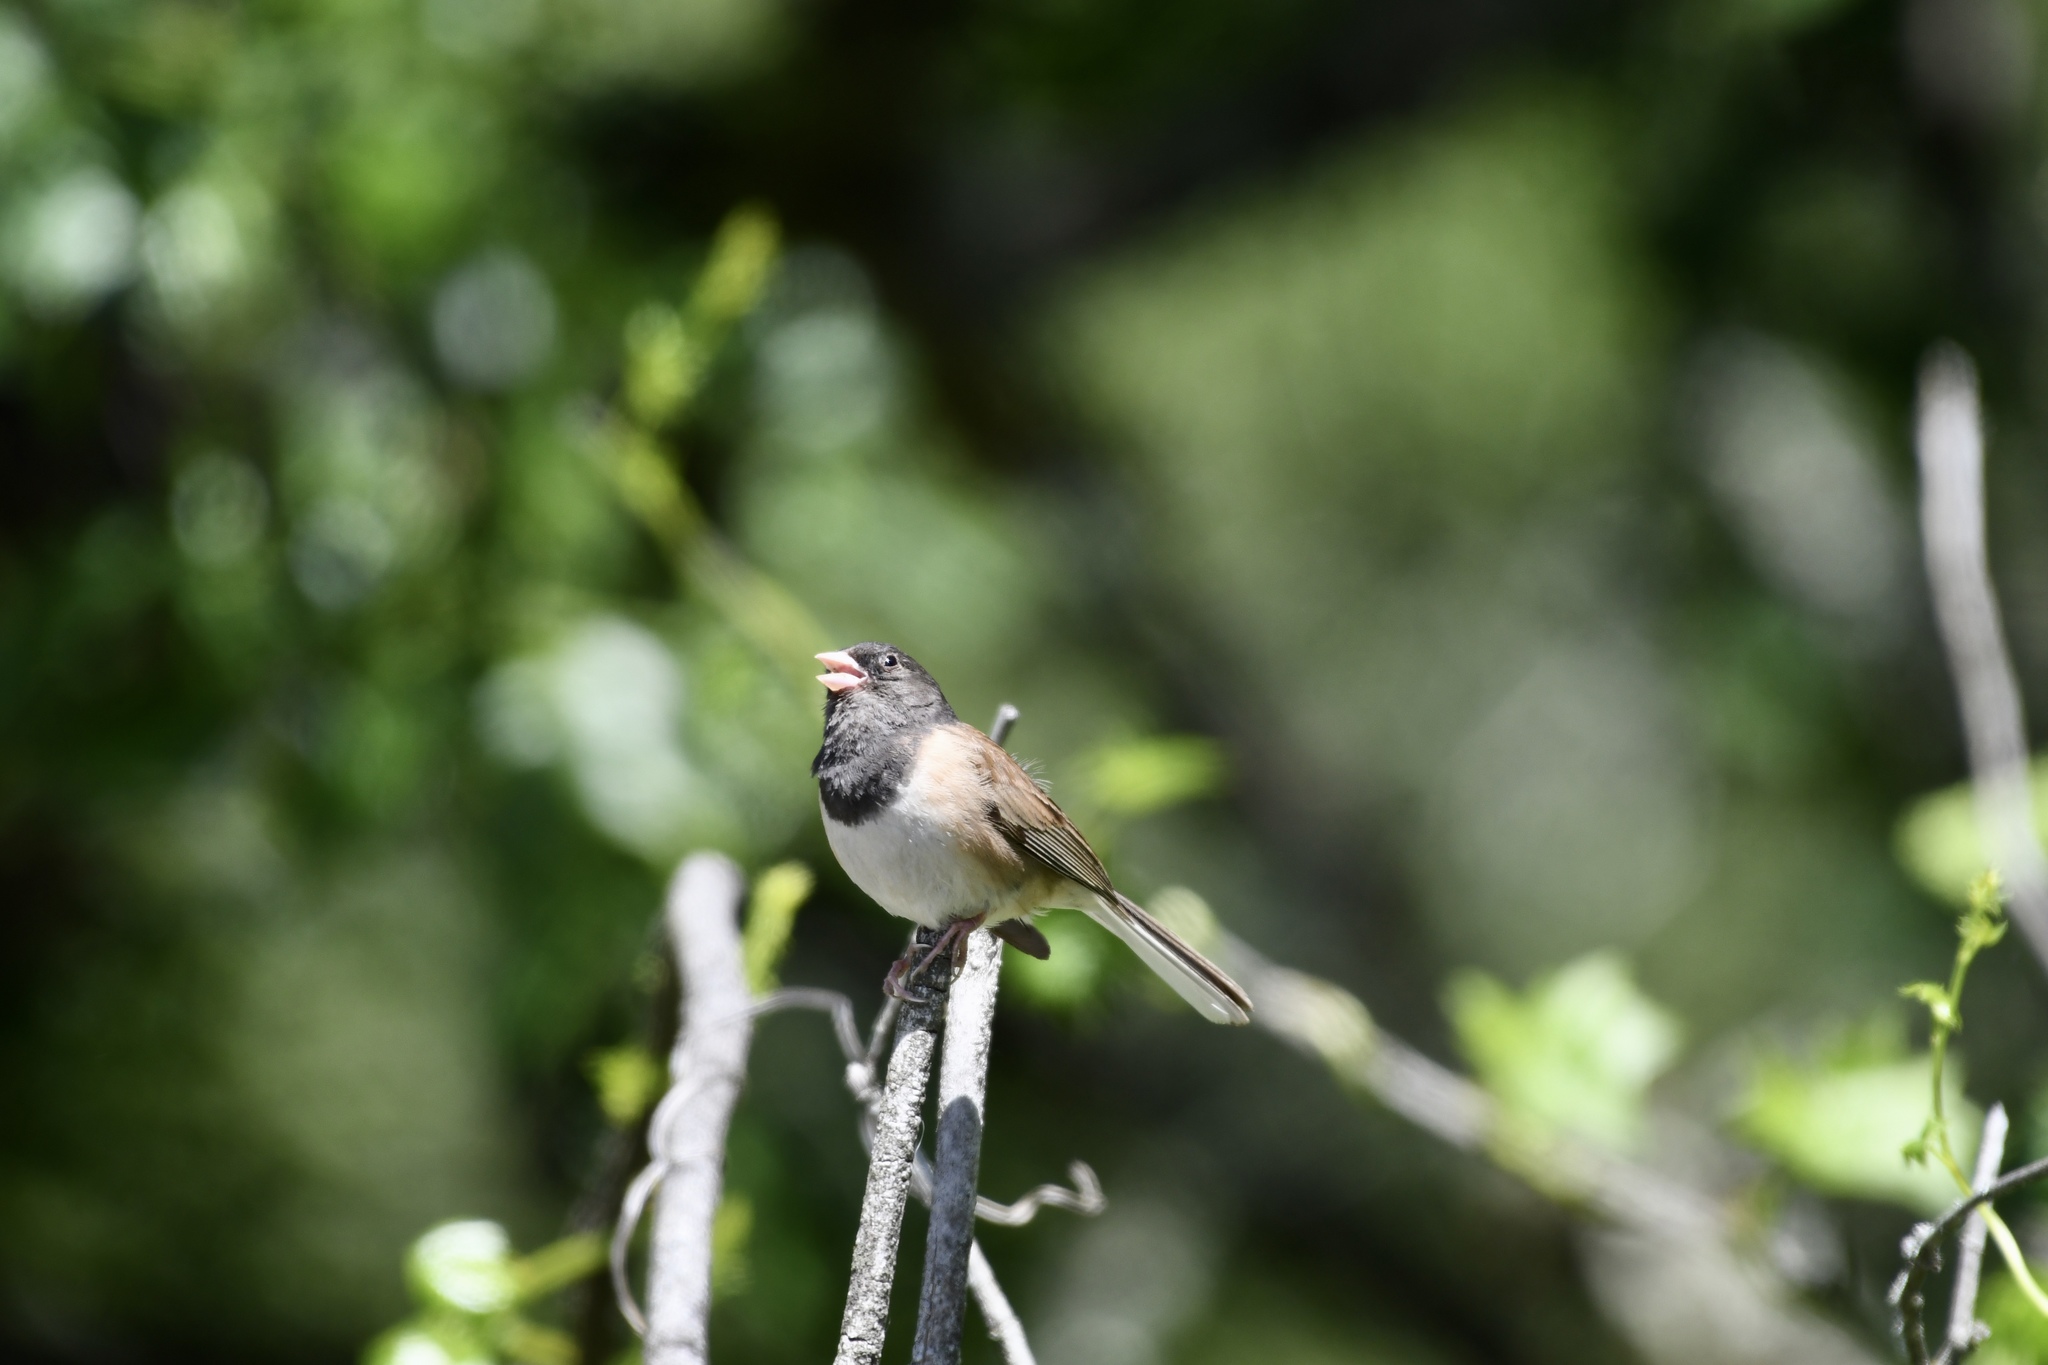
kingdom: Animalia
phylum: Chordata
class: Aves
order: Passeriformes
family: Passerellidae
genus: Junco
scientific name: Junco hyemalis
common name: Dark-eyed junco
